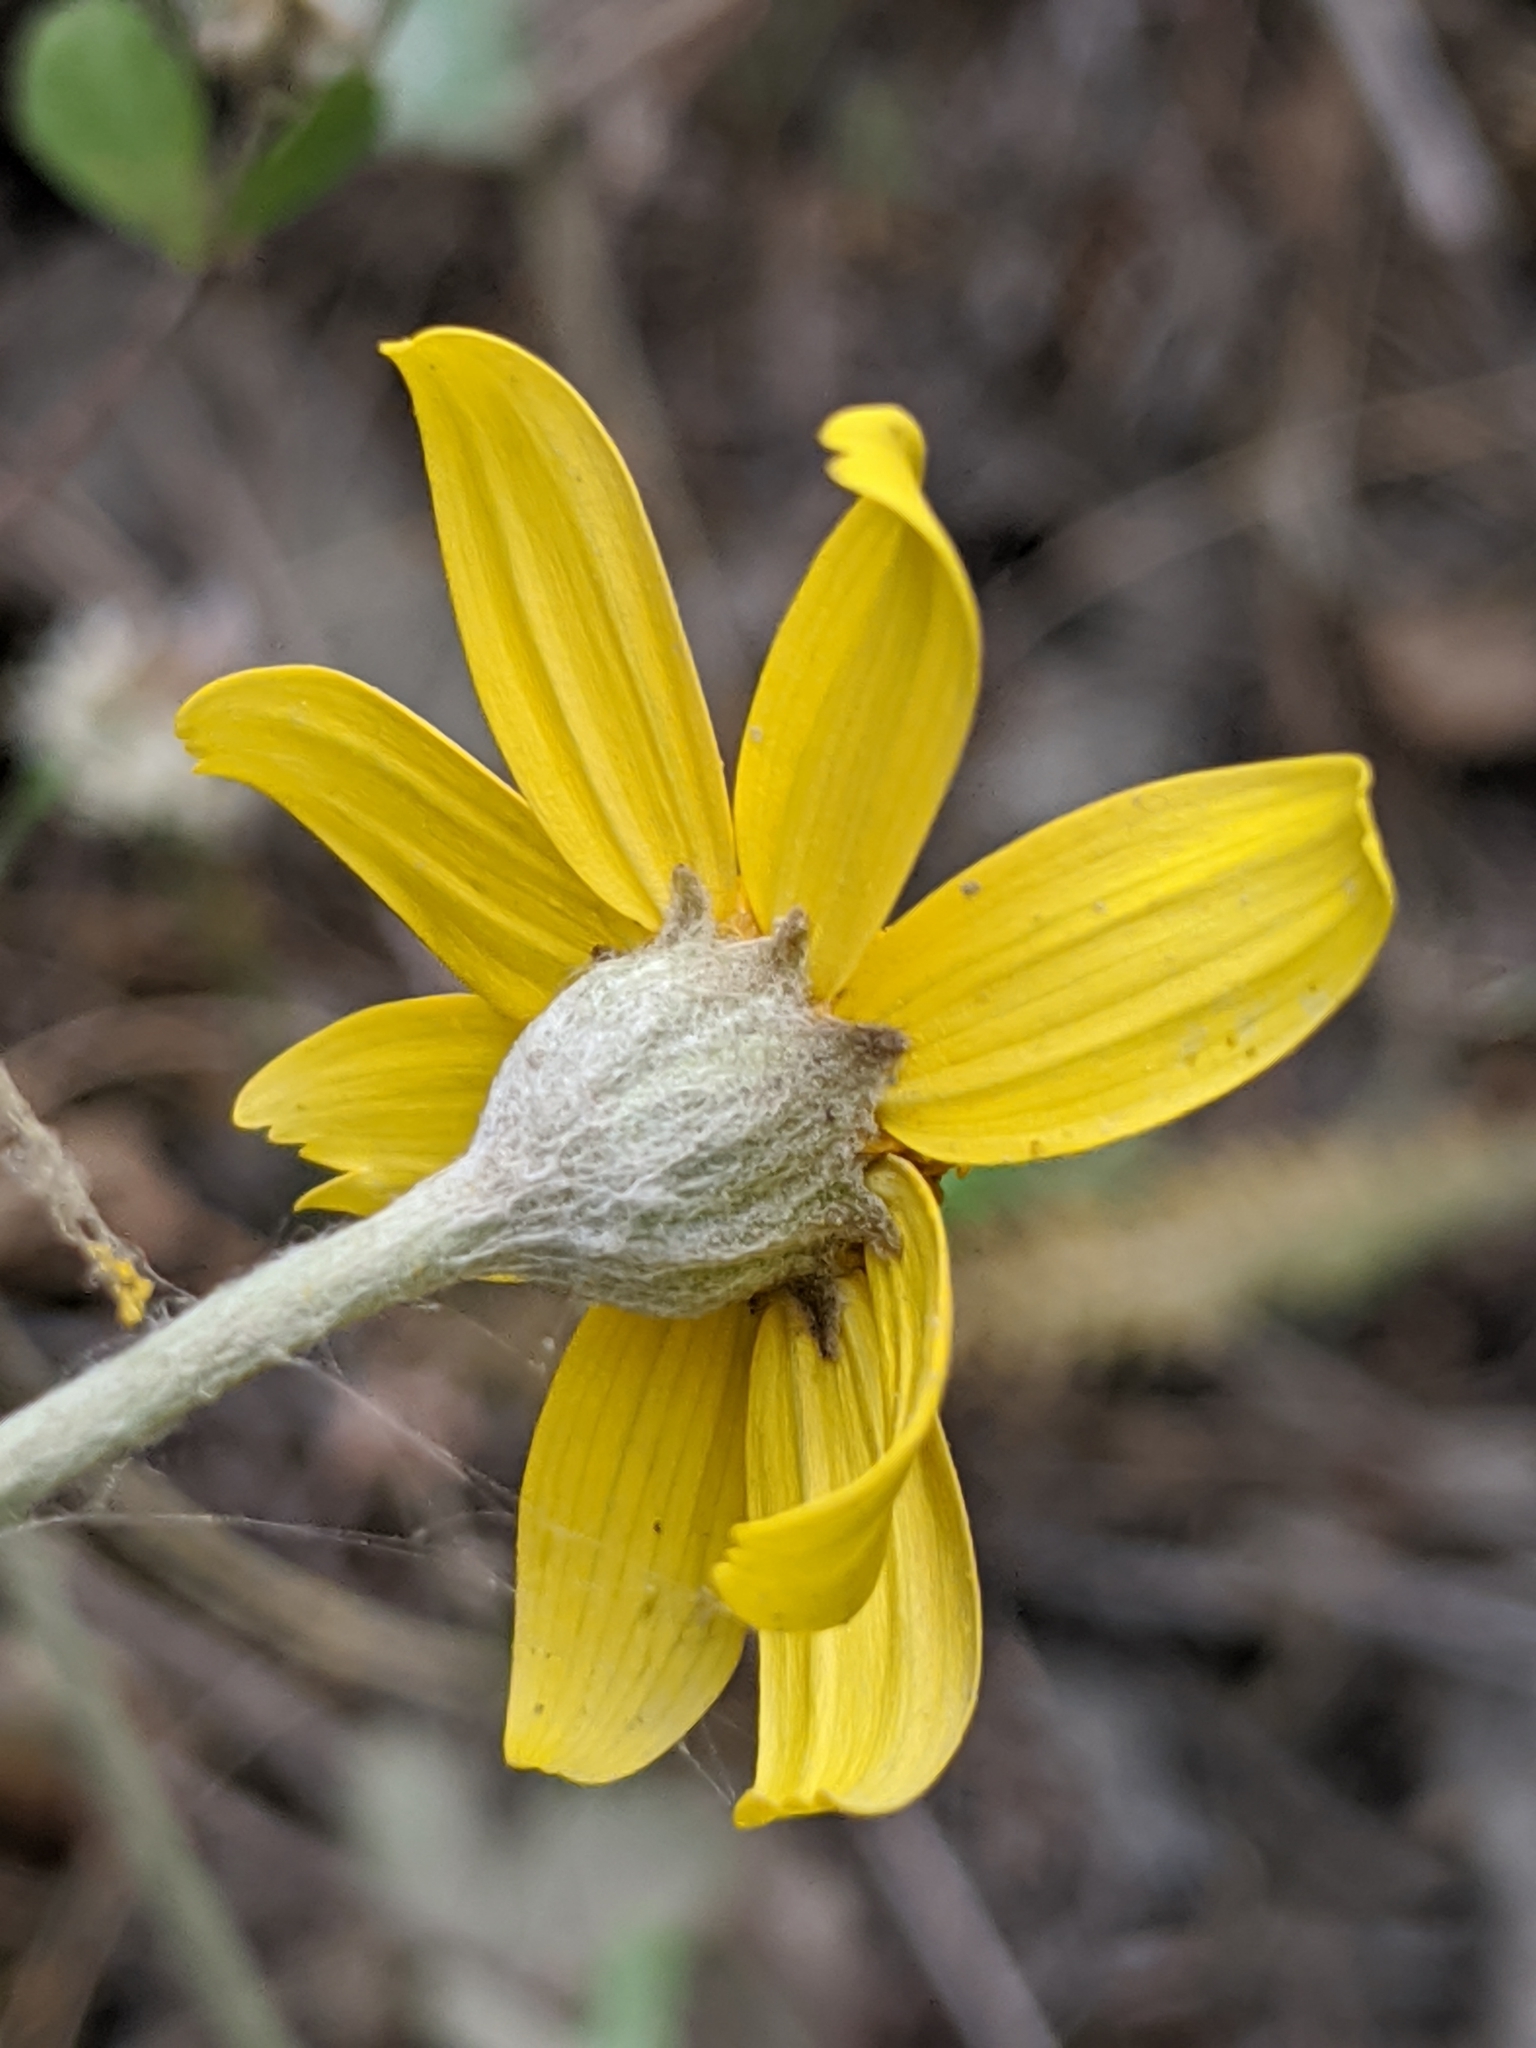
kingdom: Plantae
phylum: Tracheophyta
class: Magnoliopsida
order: Asterales
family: Asteraceae
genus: Eriophyllum
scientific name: Eriophyllum lanatum
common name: Common woolly-sunflower
